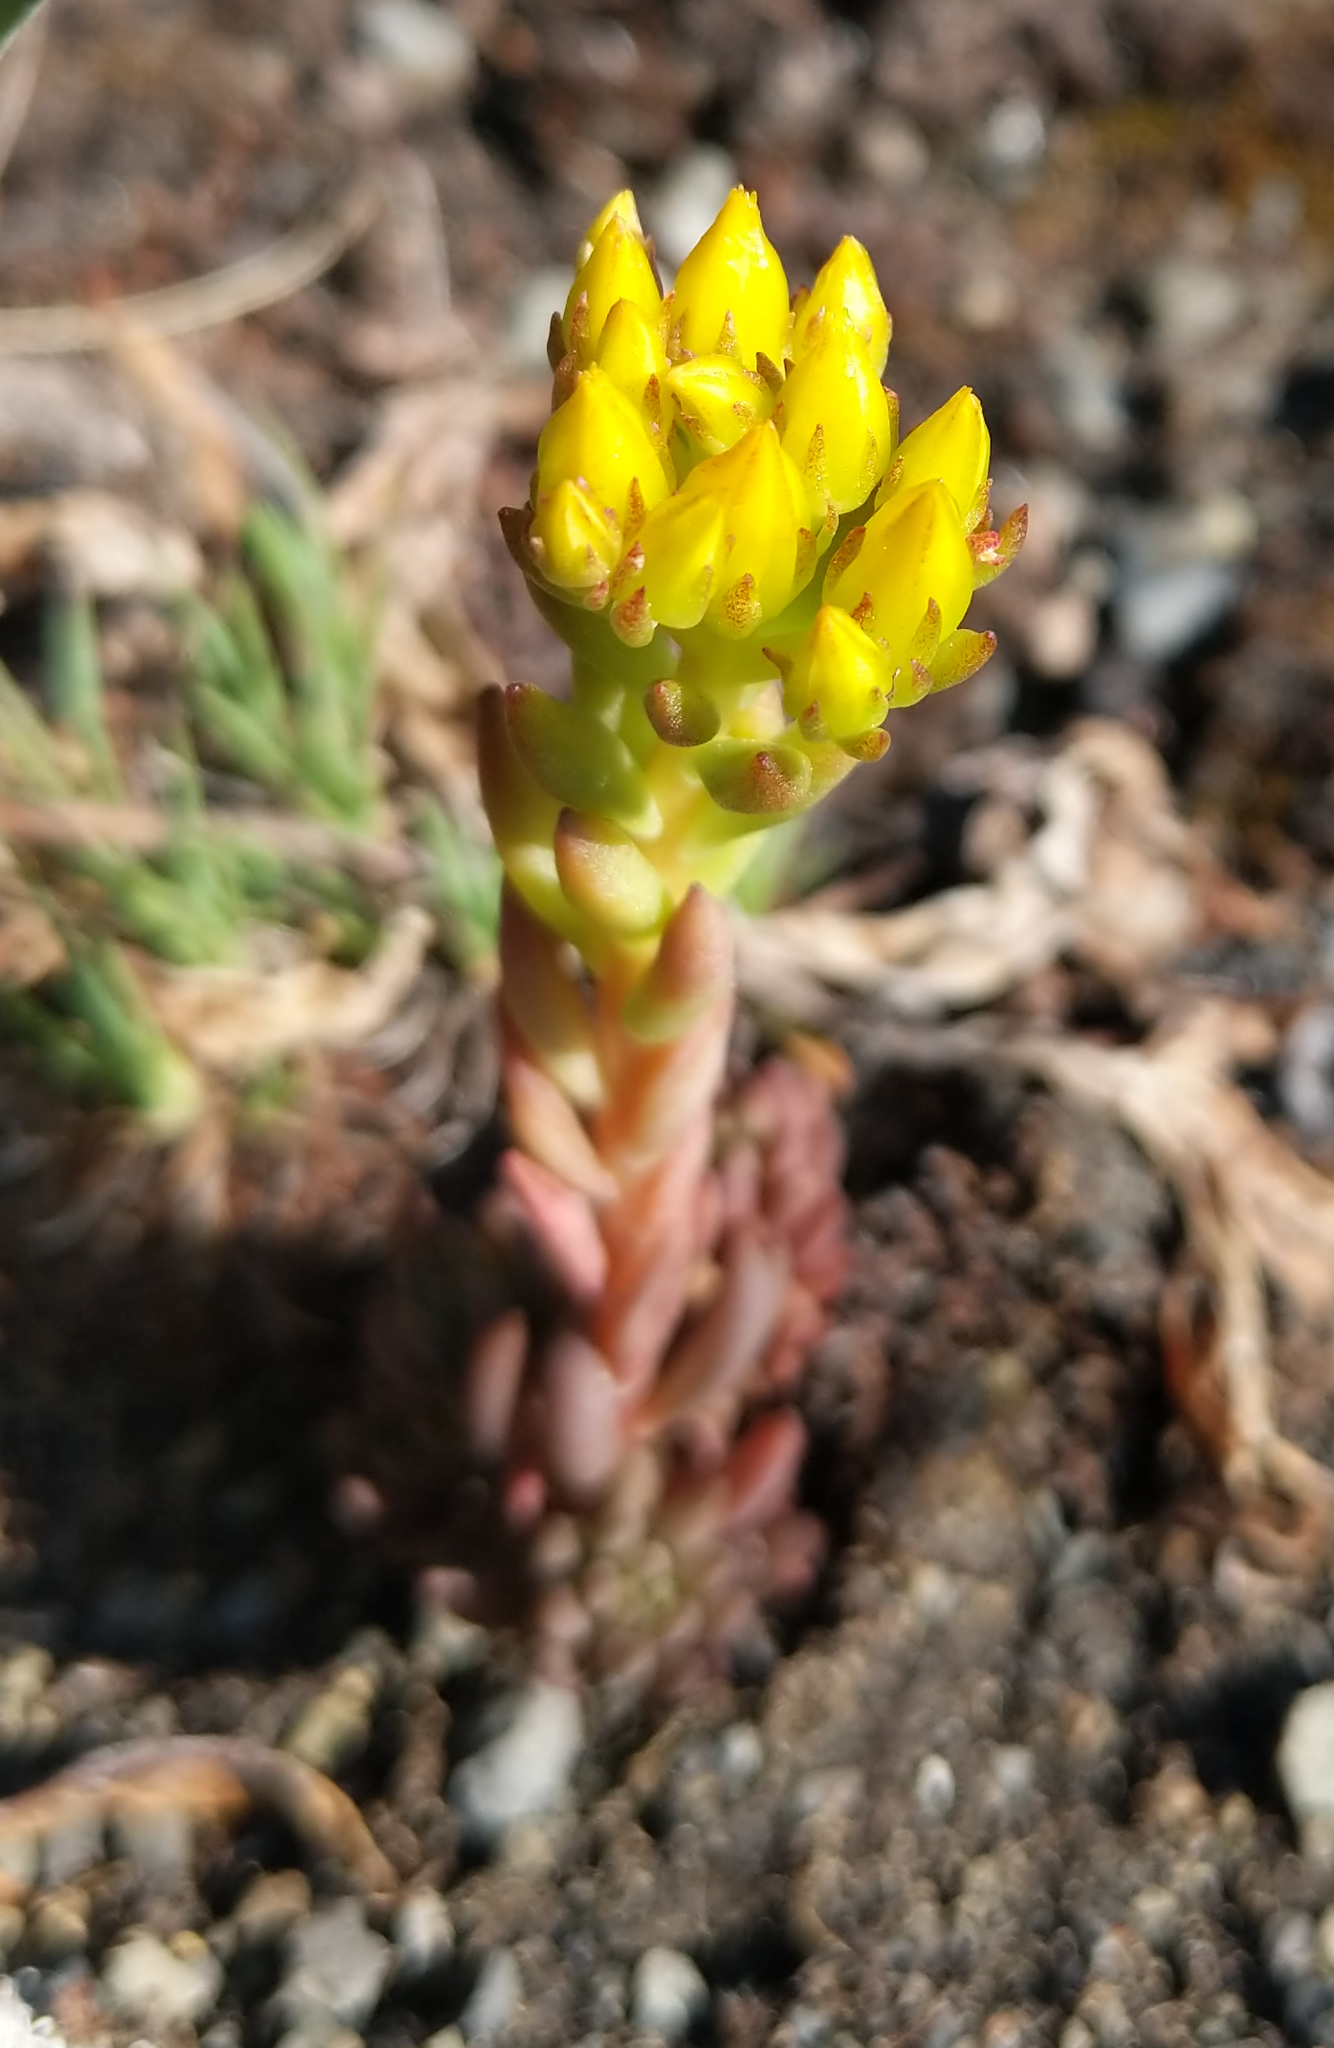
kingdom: Plantae
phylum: Tracheophyta
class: Magnoliopsida
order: Saxifragales
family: Crassulaceae
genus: Sedum
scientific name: Sedum lanceolatum
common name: Common stonecrop
